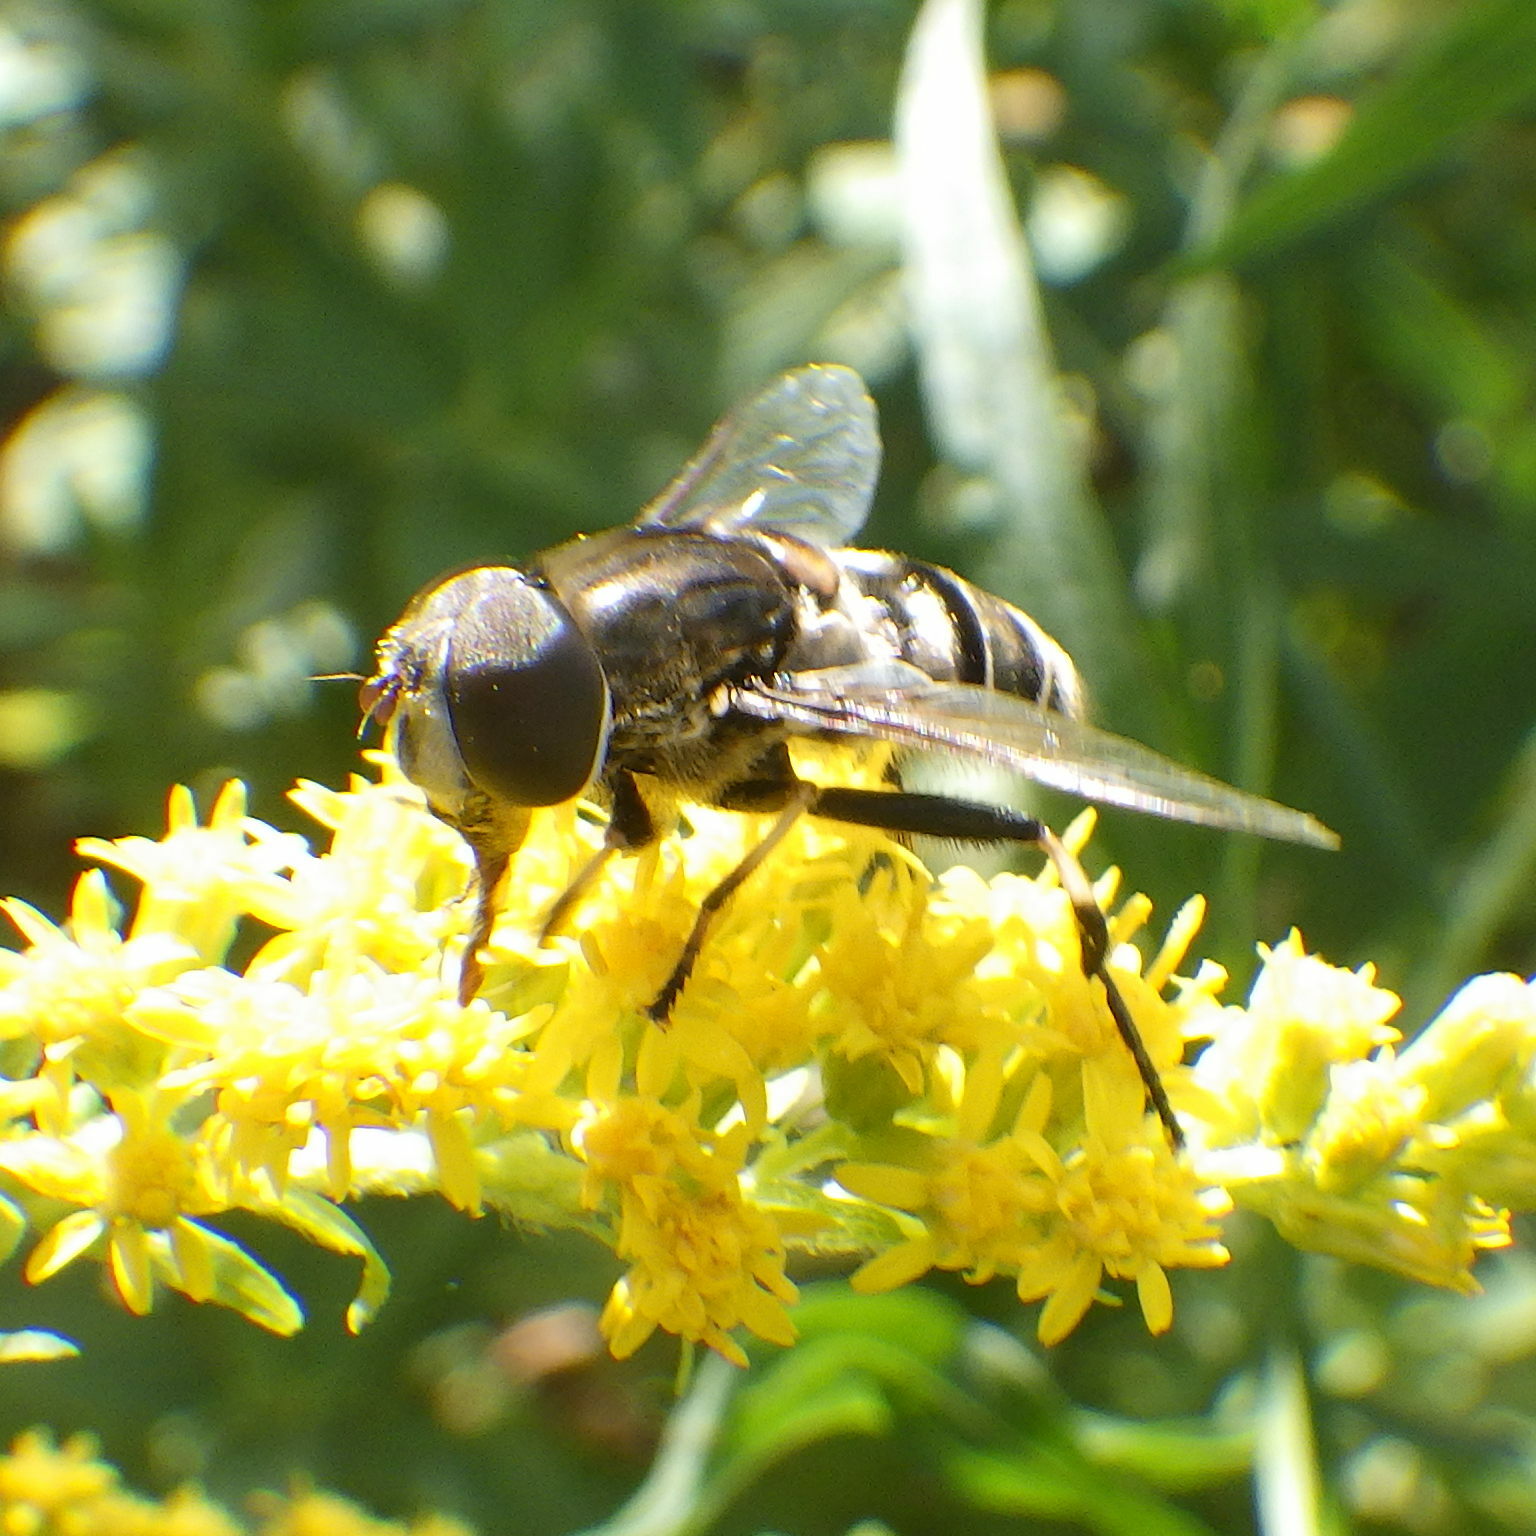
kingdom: Animalia
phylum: Arthropoda
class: Insecta
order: Diptera
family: Syrphidae
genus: Eristalis
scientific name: Eristalis dimidiata
